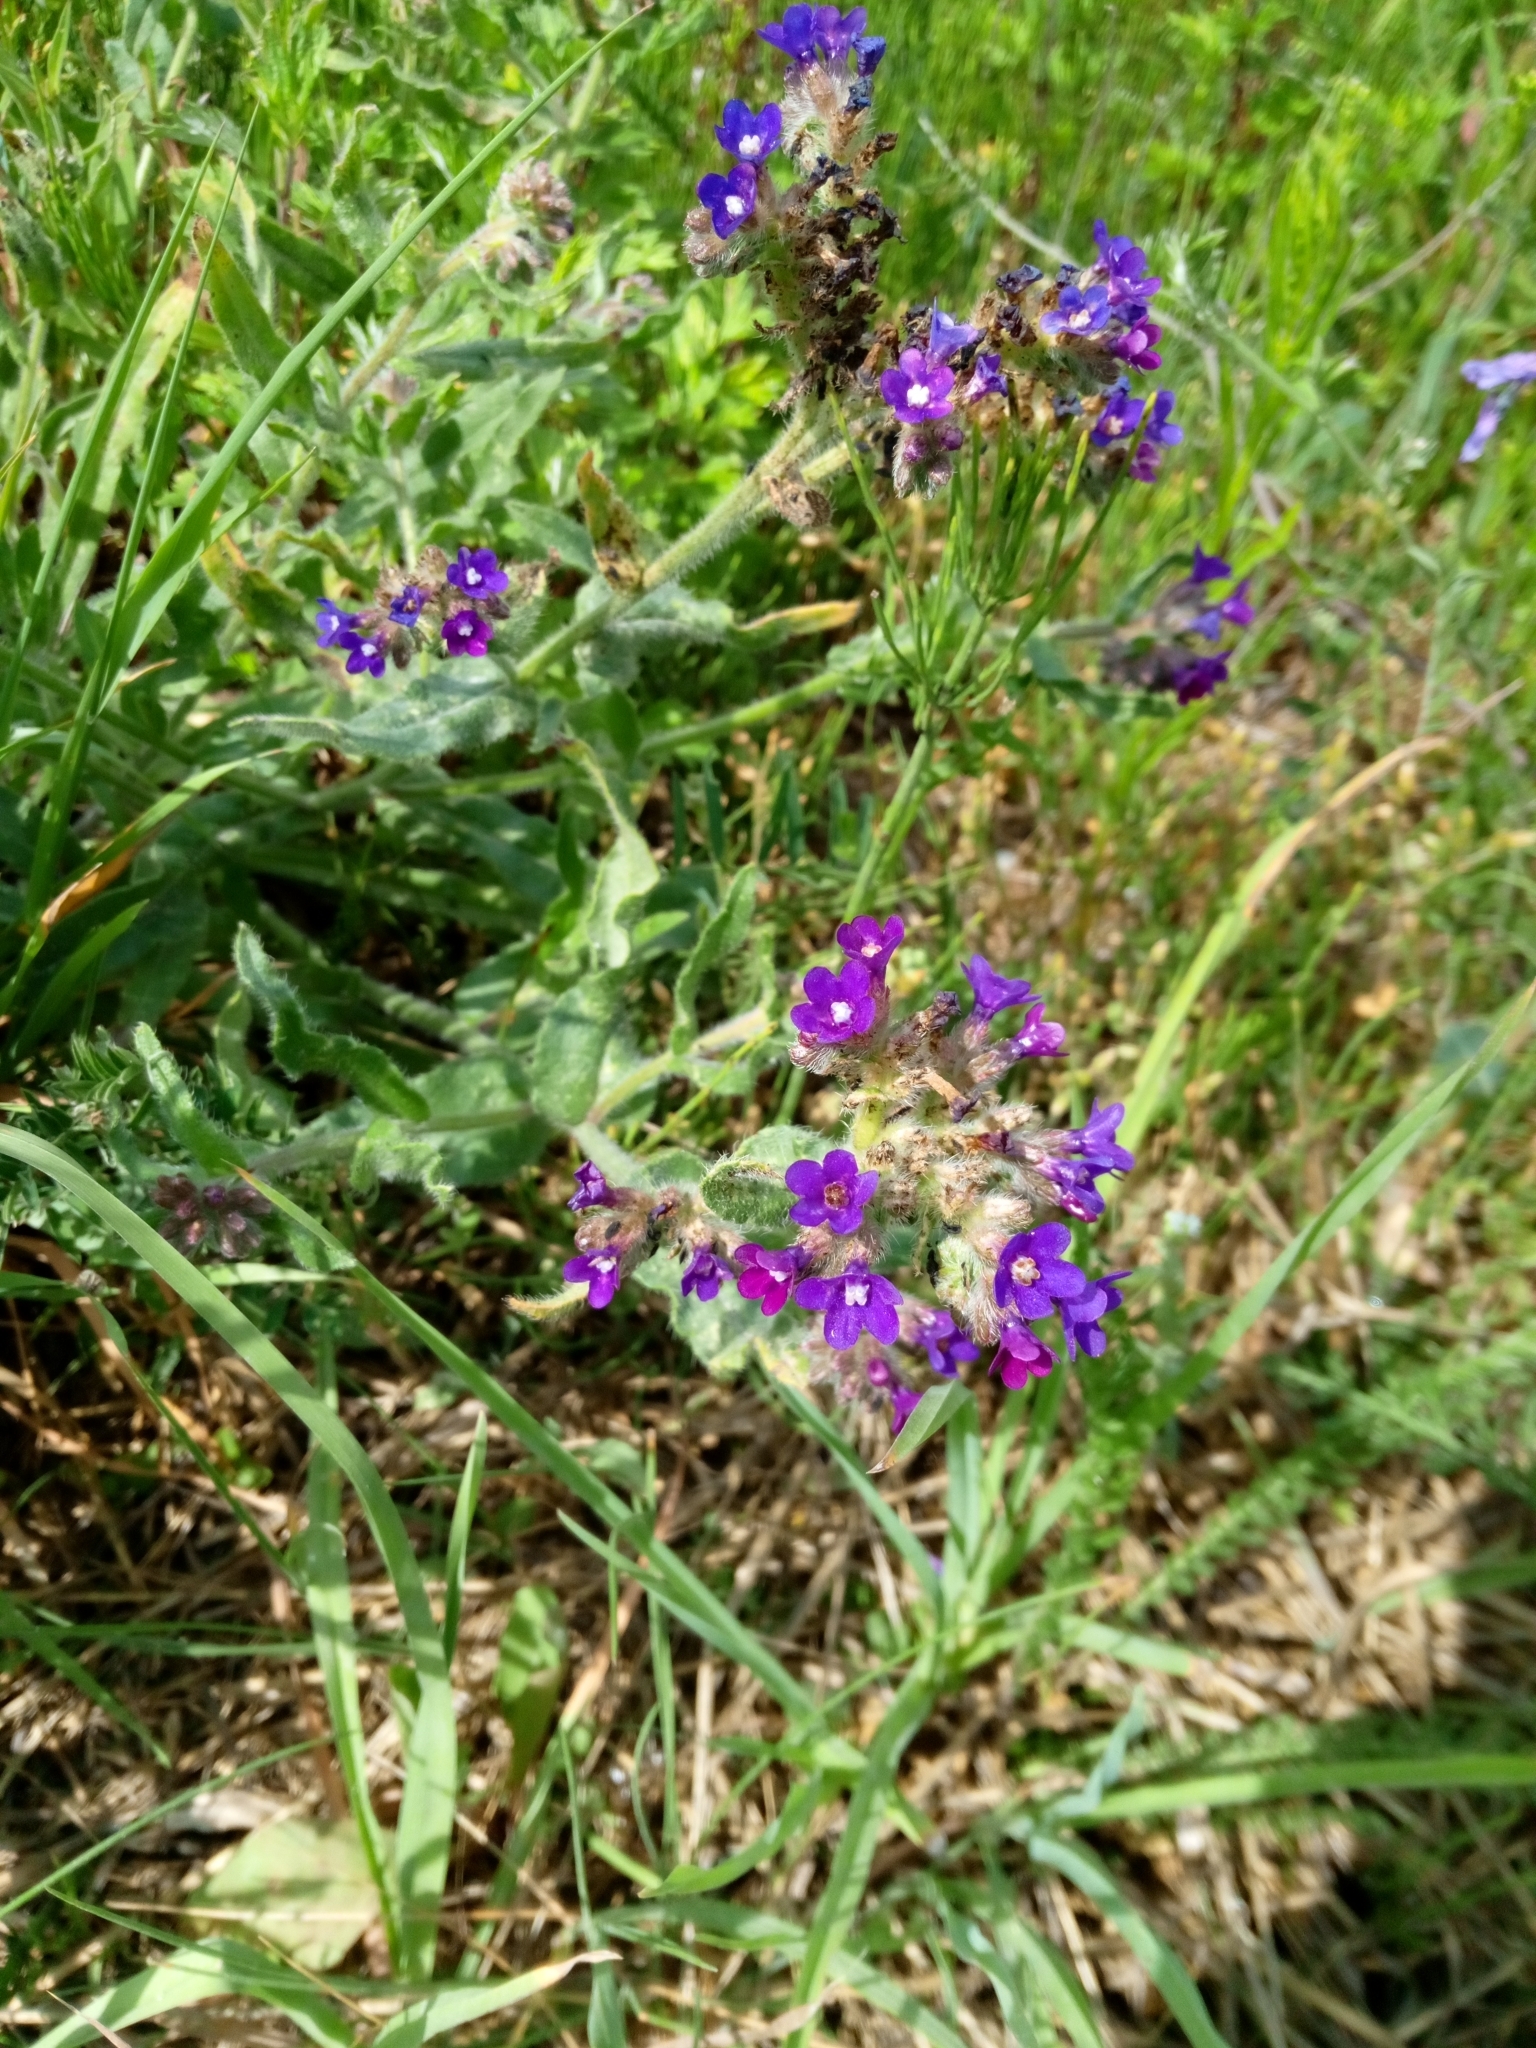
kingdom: Plantae
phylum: Tracheophyta
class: Magnoliopsida
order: Boraginales
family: Boraginaceae
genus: Anchusa
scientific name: Anchusa officinalis
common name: Alkanet
